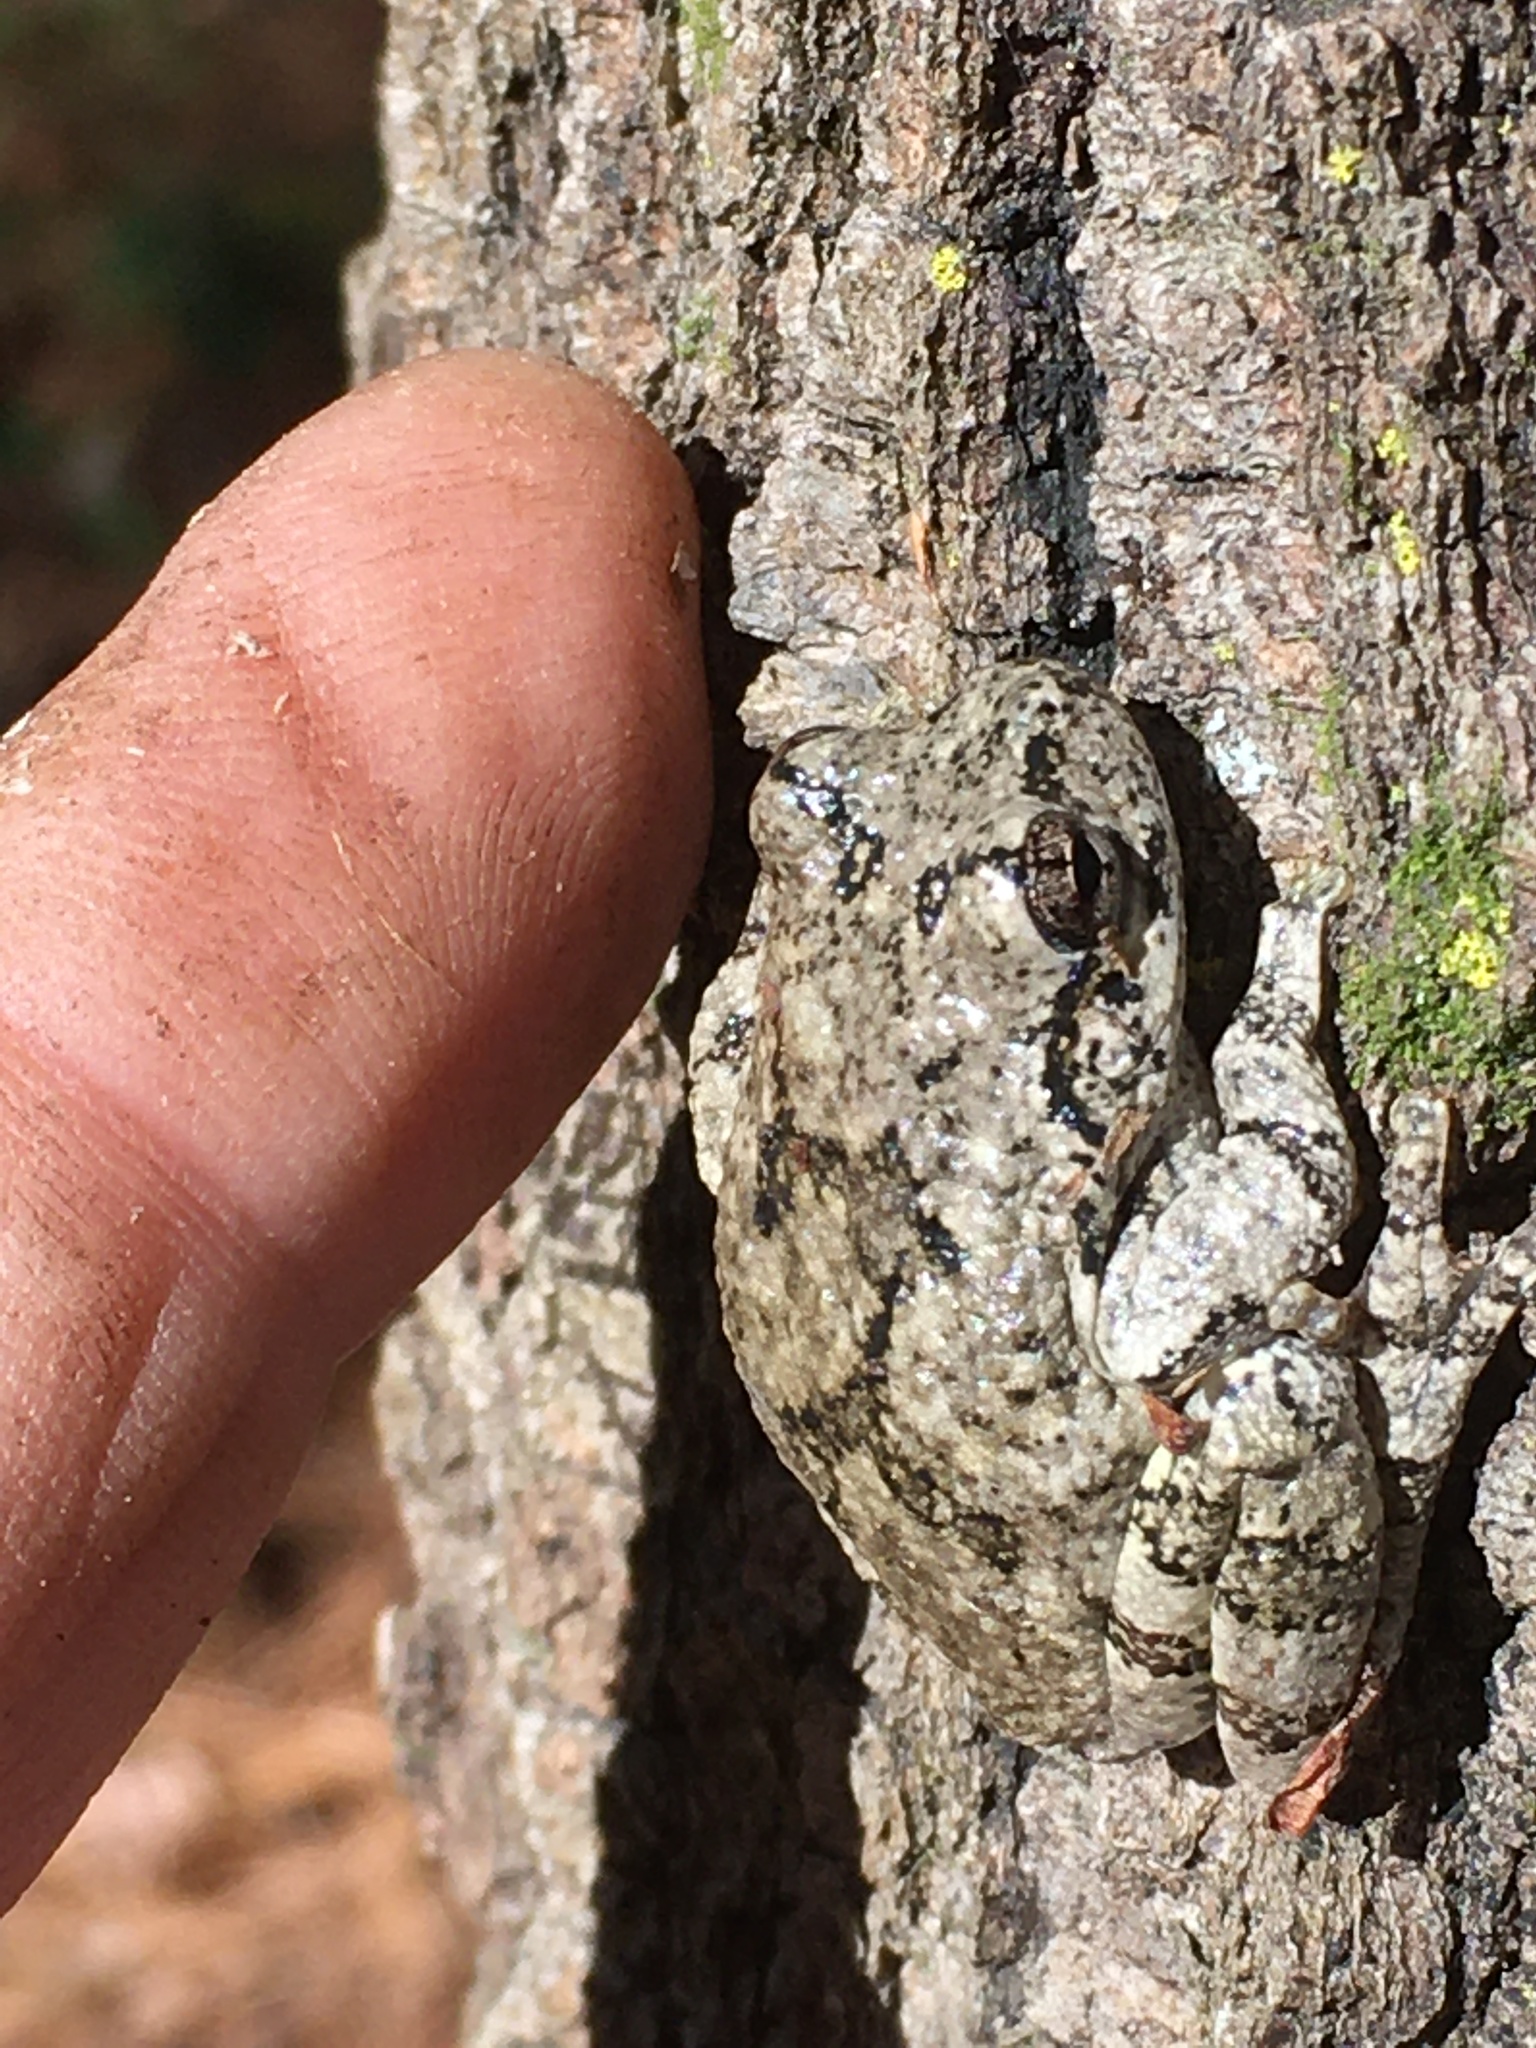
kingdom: Animalia
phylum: Chordata
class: Amphibia
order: Anura
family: Hylidae
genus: Dryophytes
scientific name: Dryophytes chrysoscelis
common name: Cope's gray treefrog
